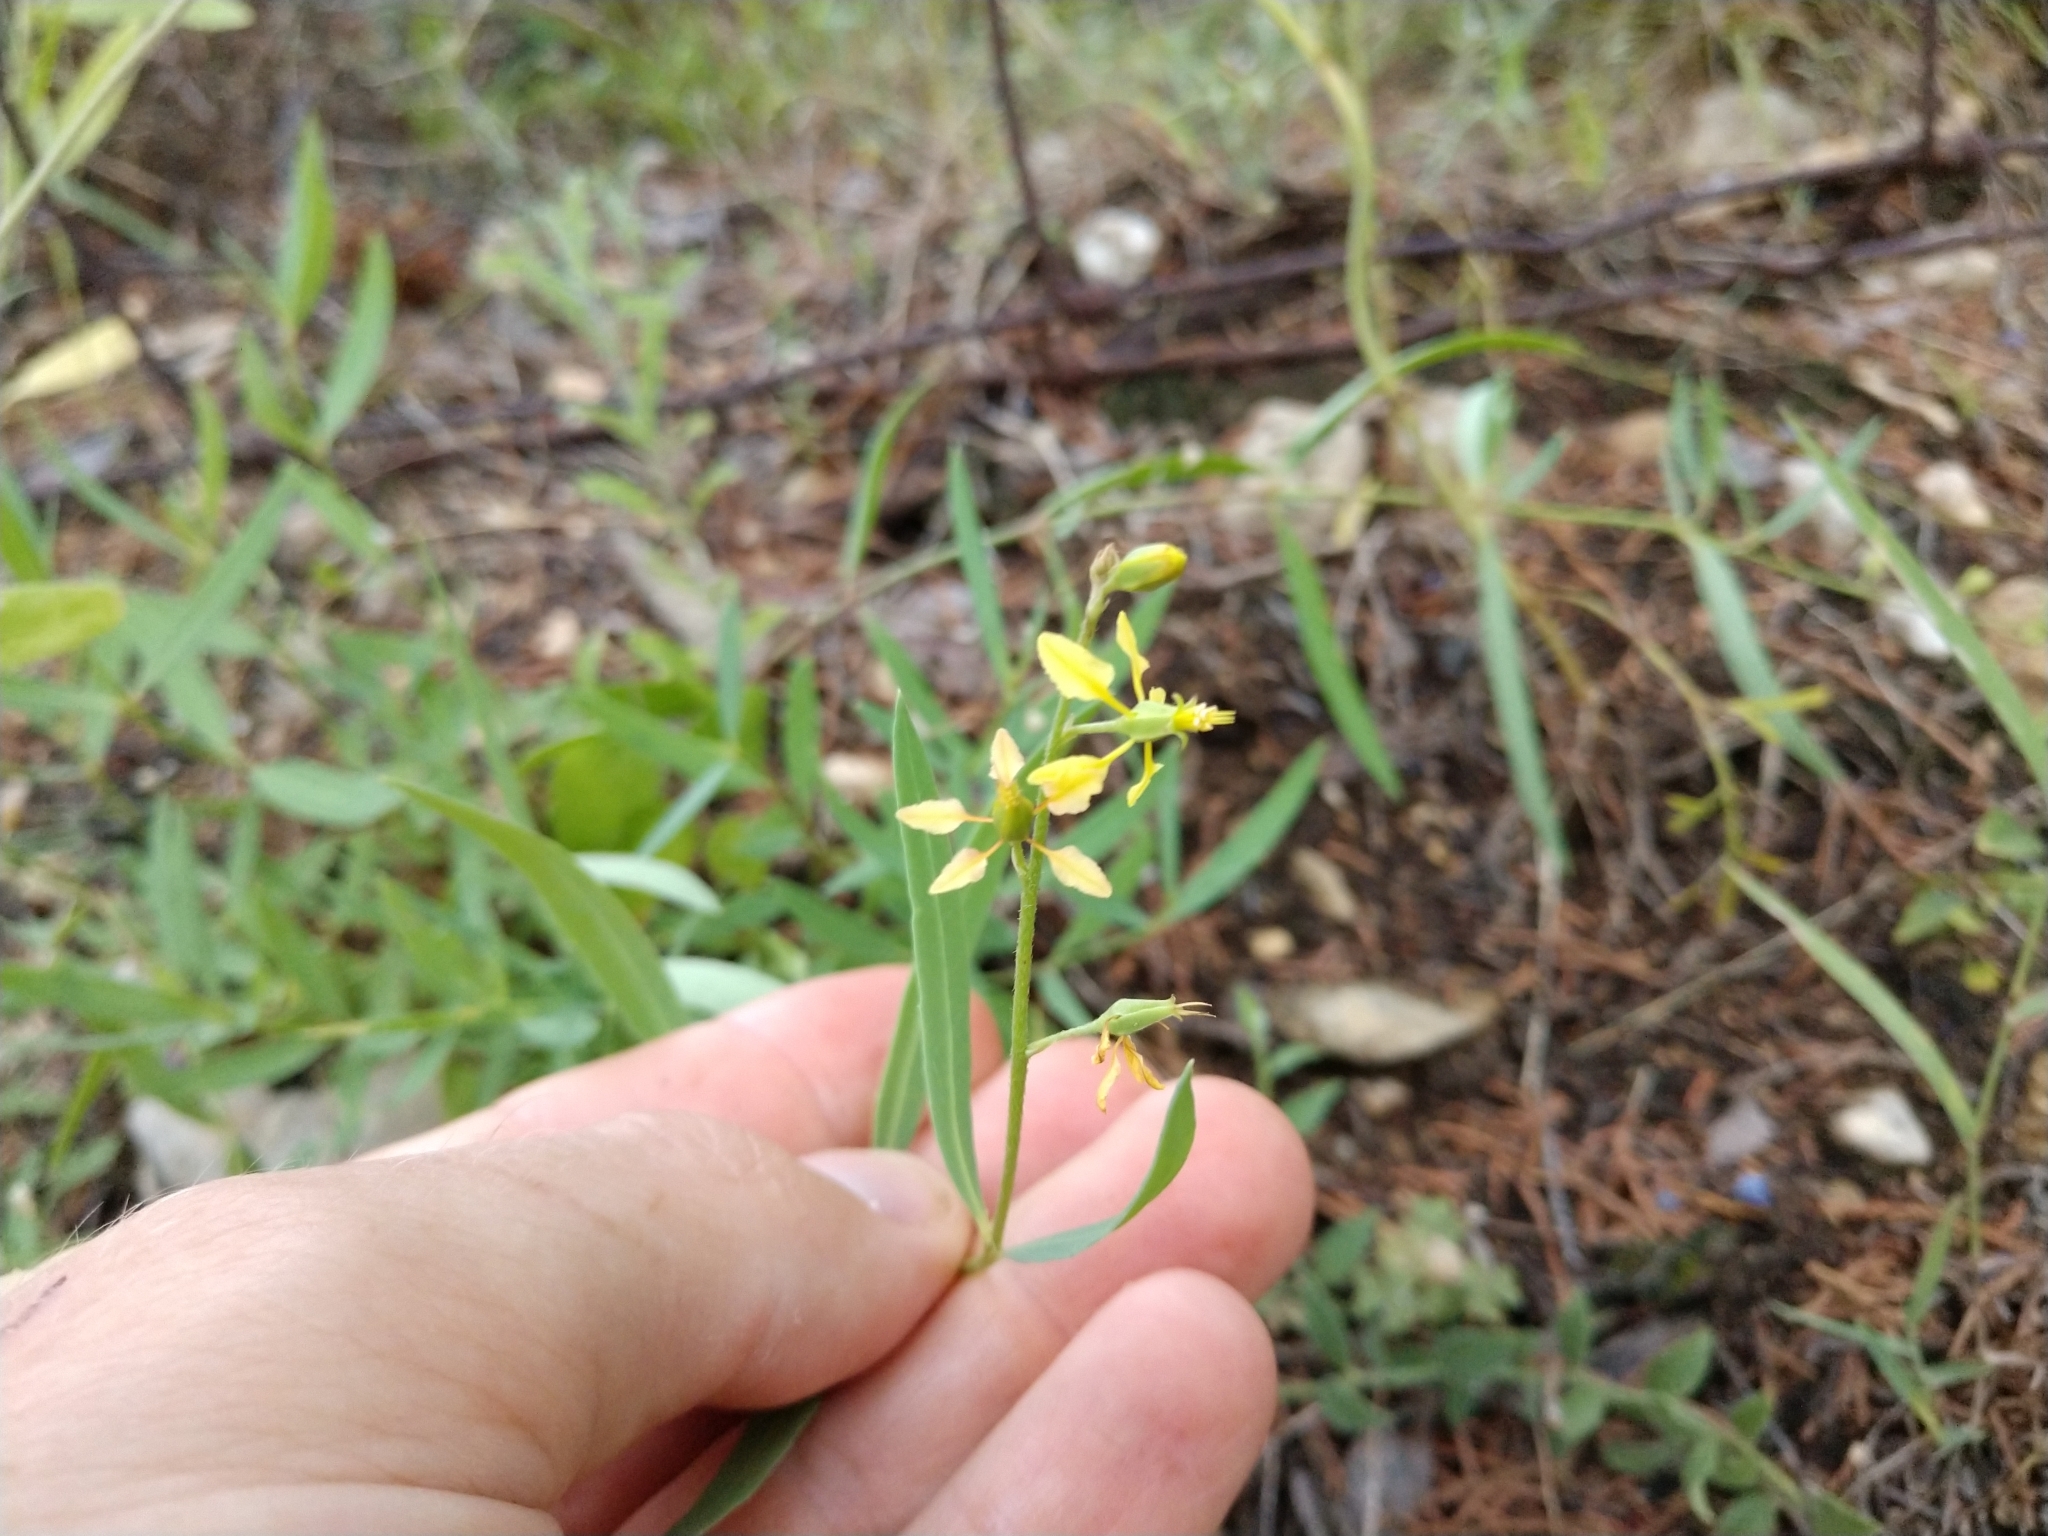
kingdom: Plantae
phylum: Tracheophyta
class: Magnoliopsida
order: Malpighiales
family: Malpighiaceae
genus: Galphimia
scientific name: Galphimia angustifolia
